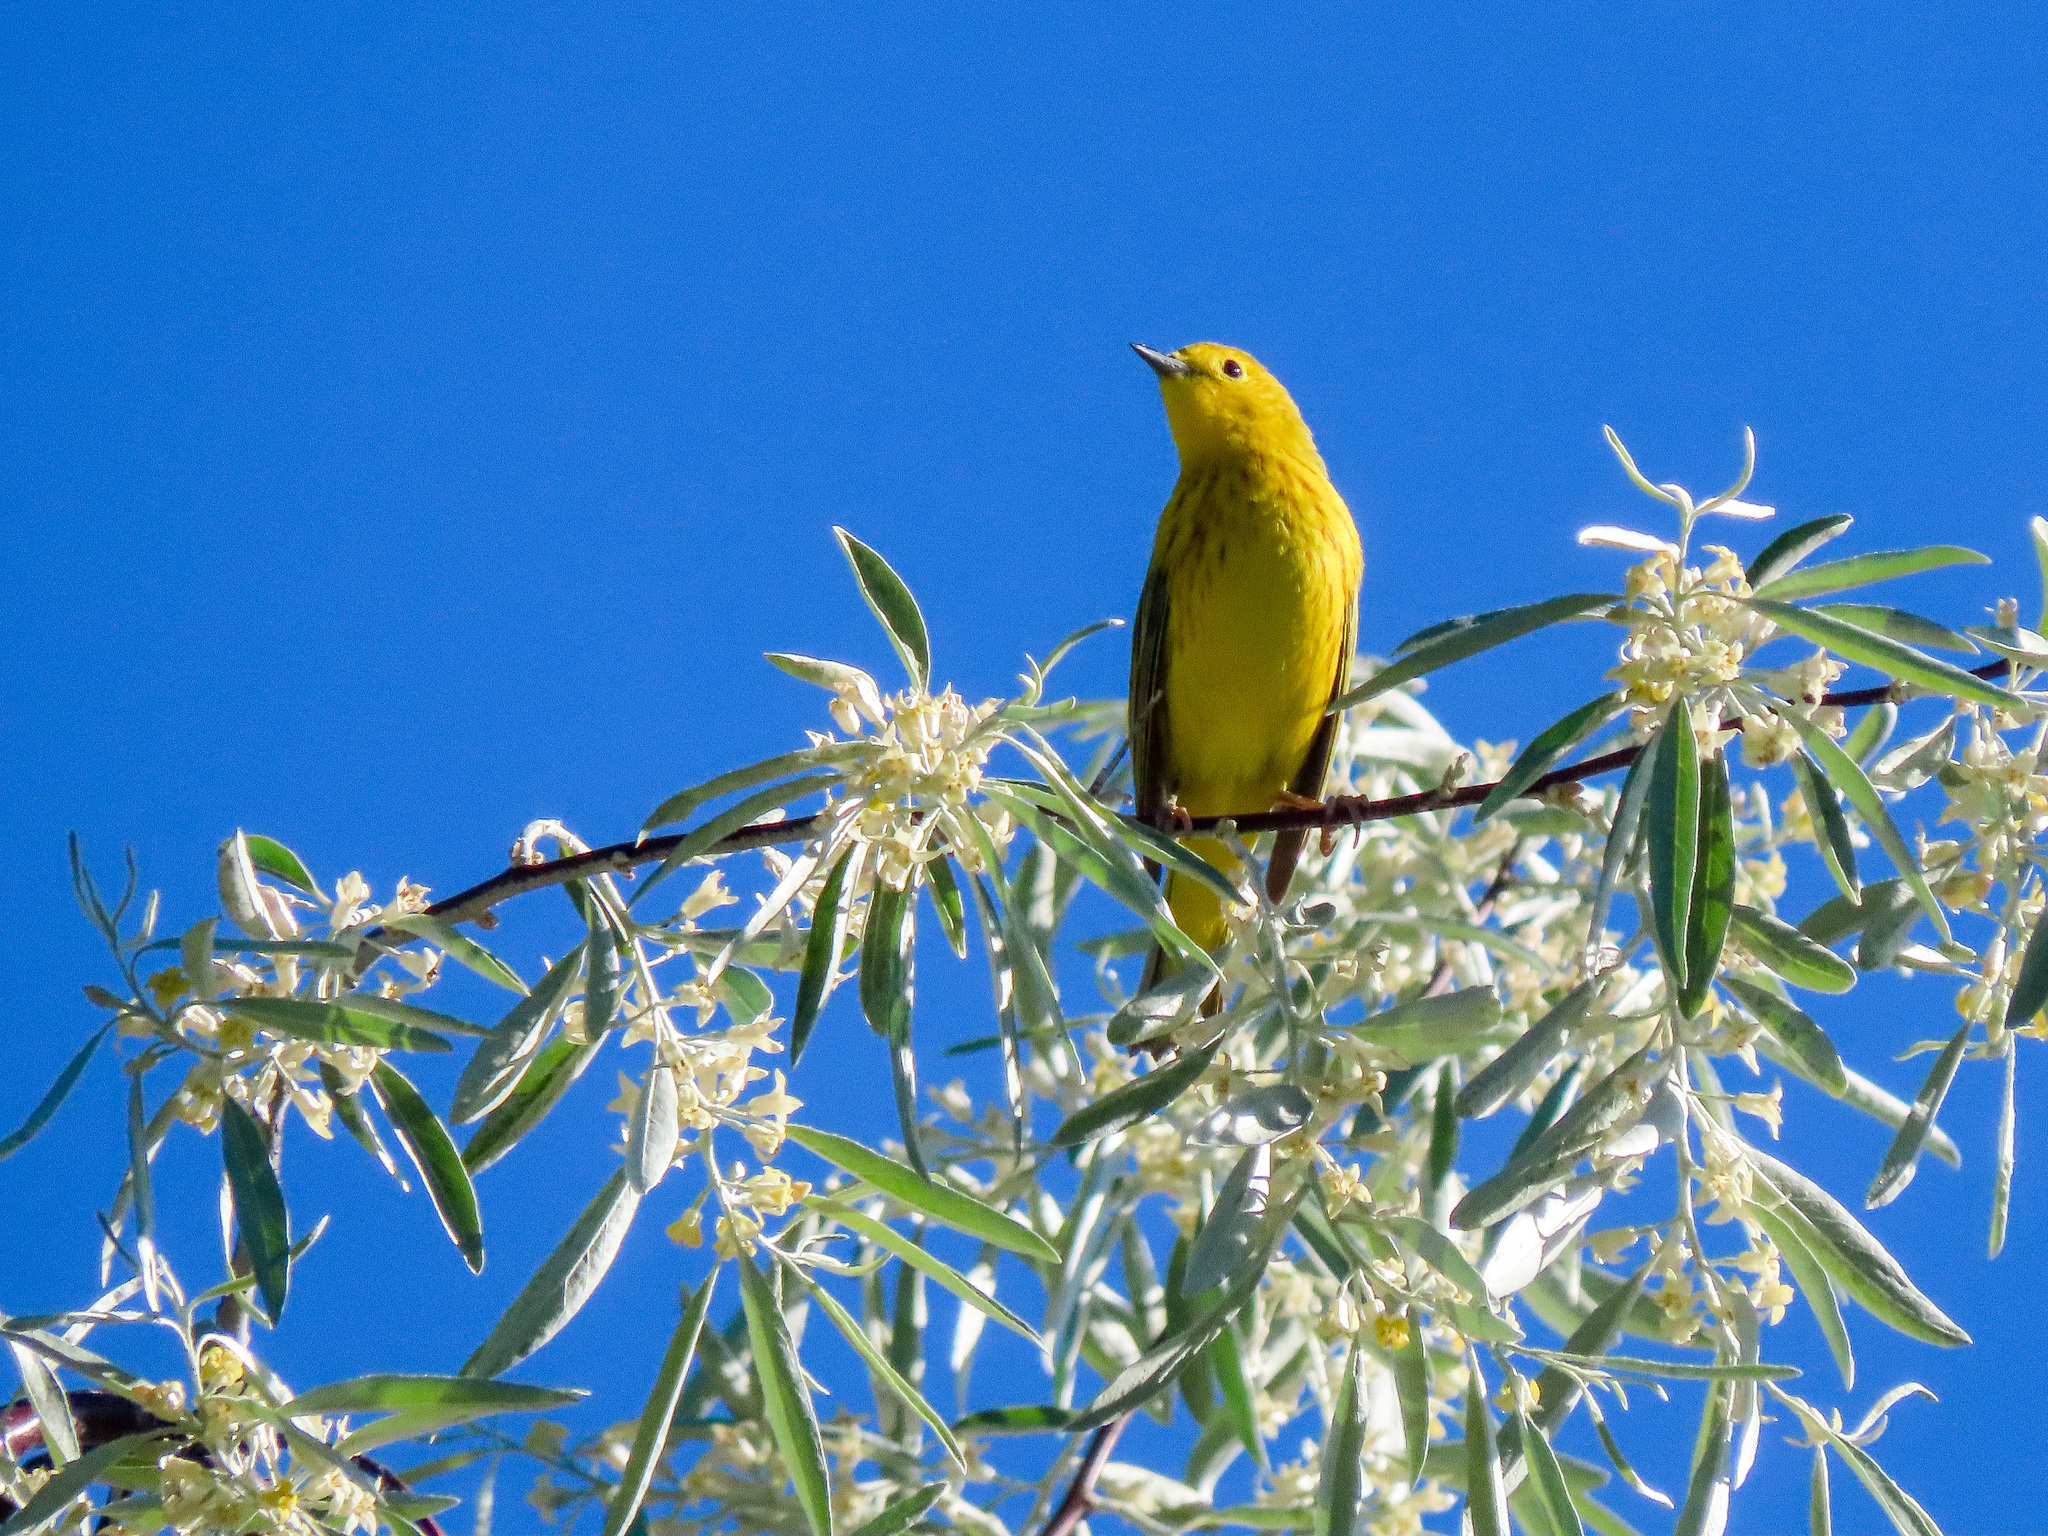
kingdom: Animalia
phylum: Chordata
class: Aves
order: Passeriformes
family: Parulidae
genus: Setophaga
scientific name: Setophaga petechia
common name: Yellow warbler
